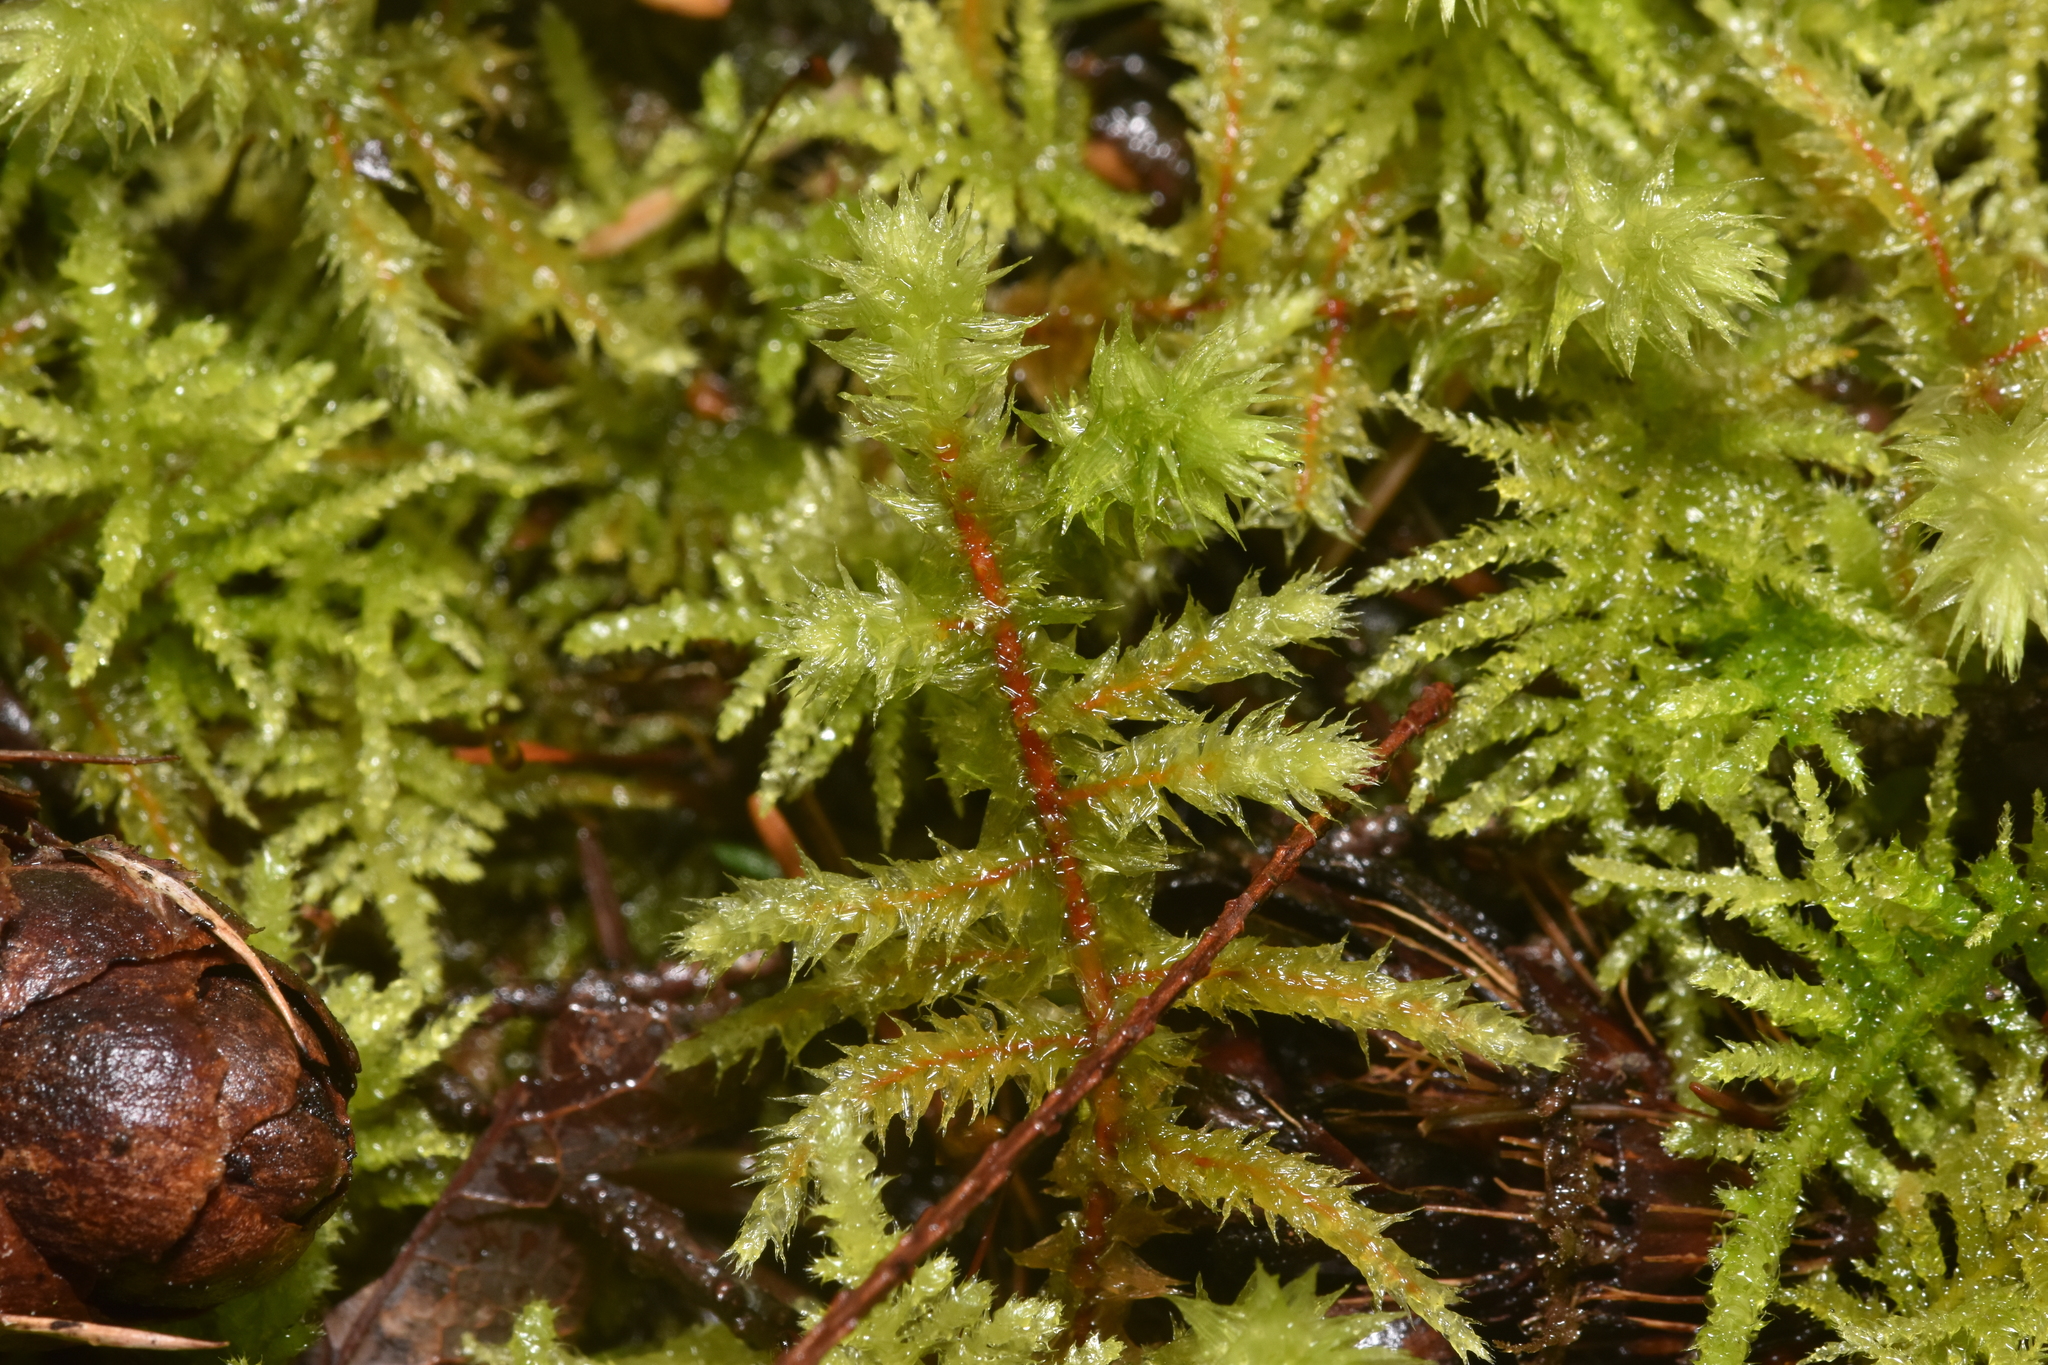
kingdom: Plantae
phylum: Bryophyta
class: Bryopsida
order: Hypnales
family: Hylocomiaceae
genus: Hylocomiadelphus
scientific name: Hylocomiadelphus triquetrus
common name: Rough goose neck moss
